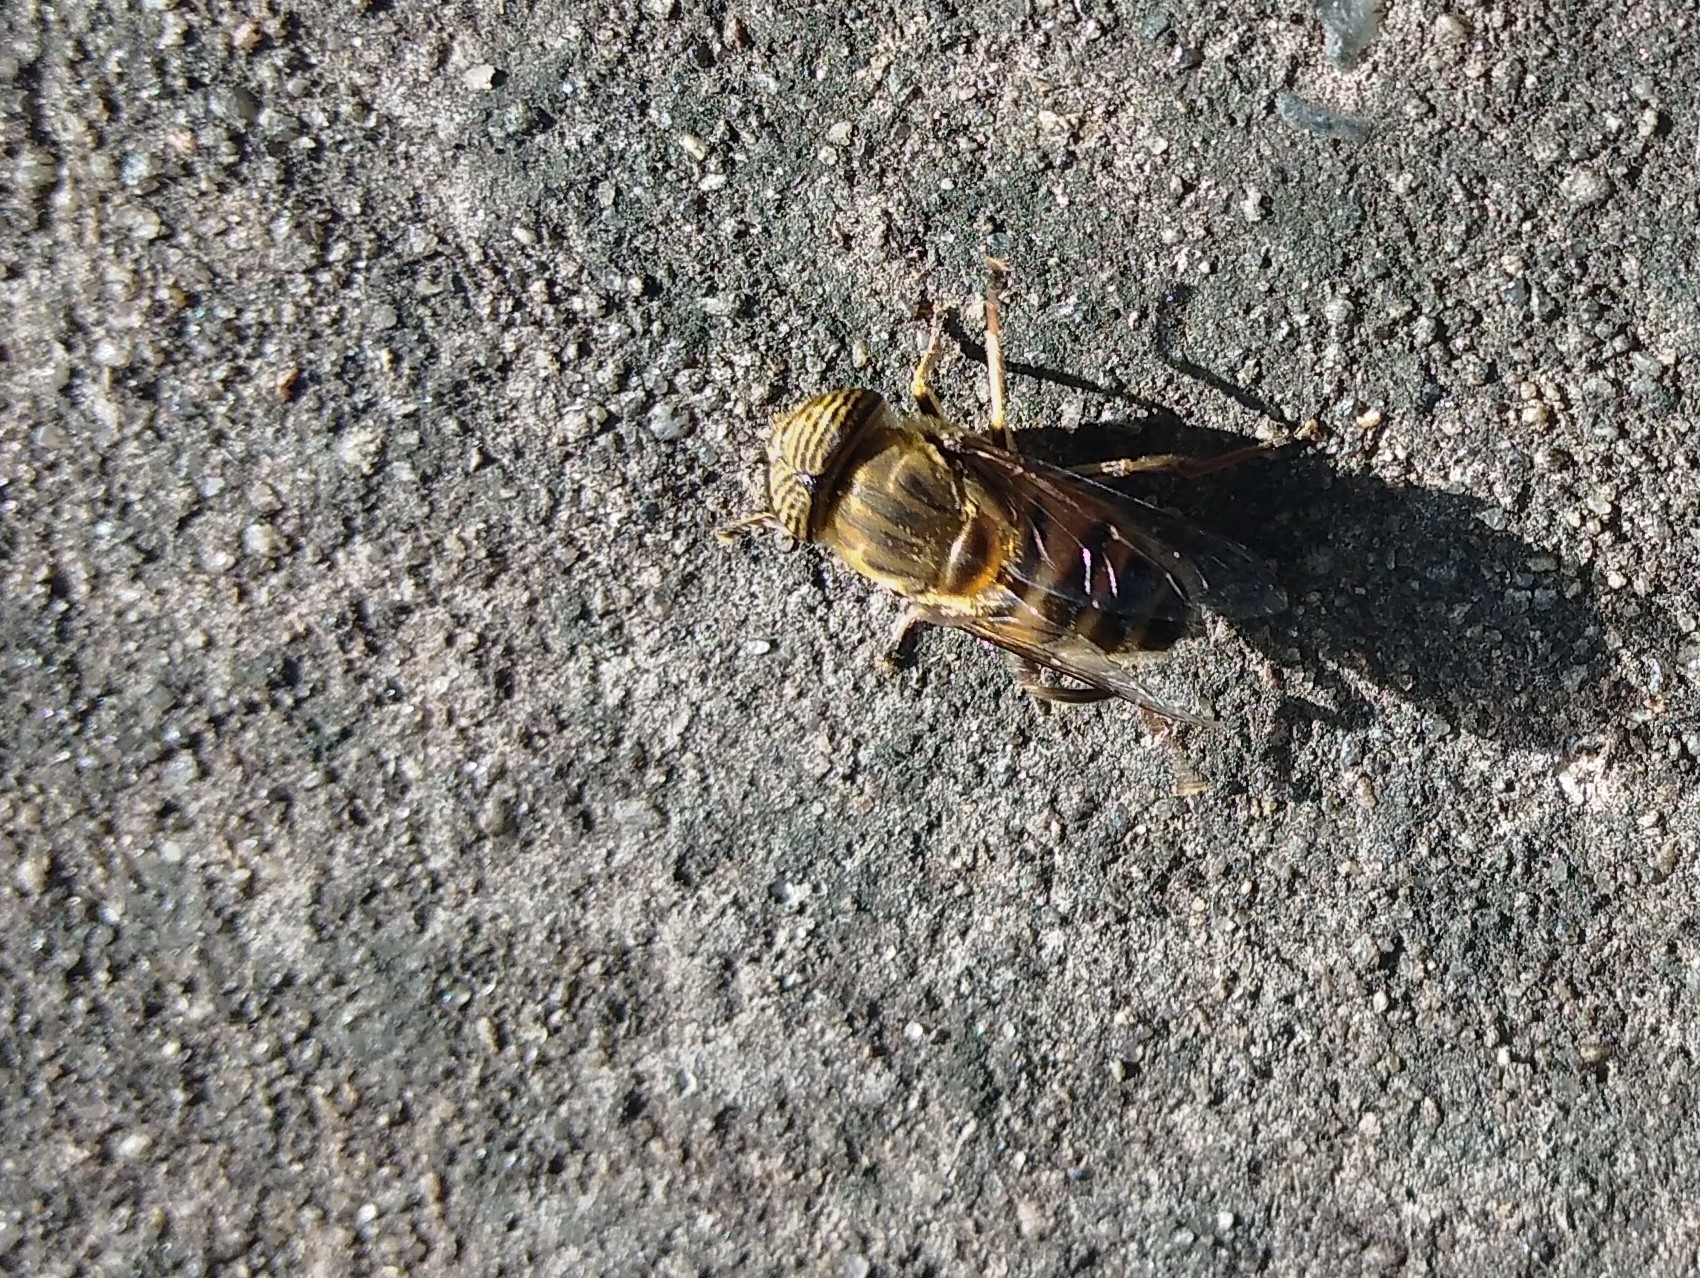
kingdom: Animalia
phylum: Arthropoda
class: Insecta
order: Diptera
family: Syrphidae
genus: Eristalinus
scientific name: Eristalinus taeniops
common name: Syrphid fly
